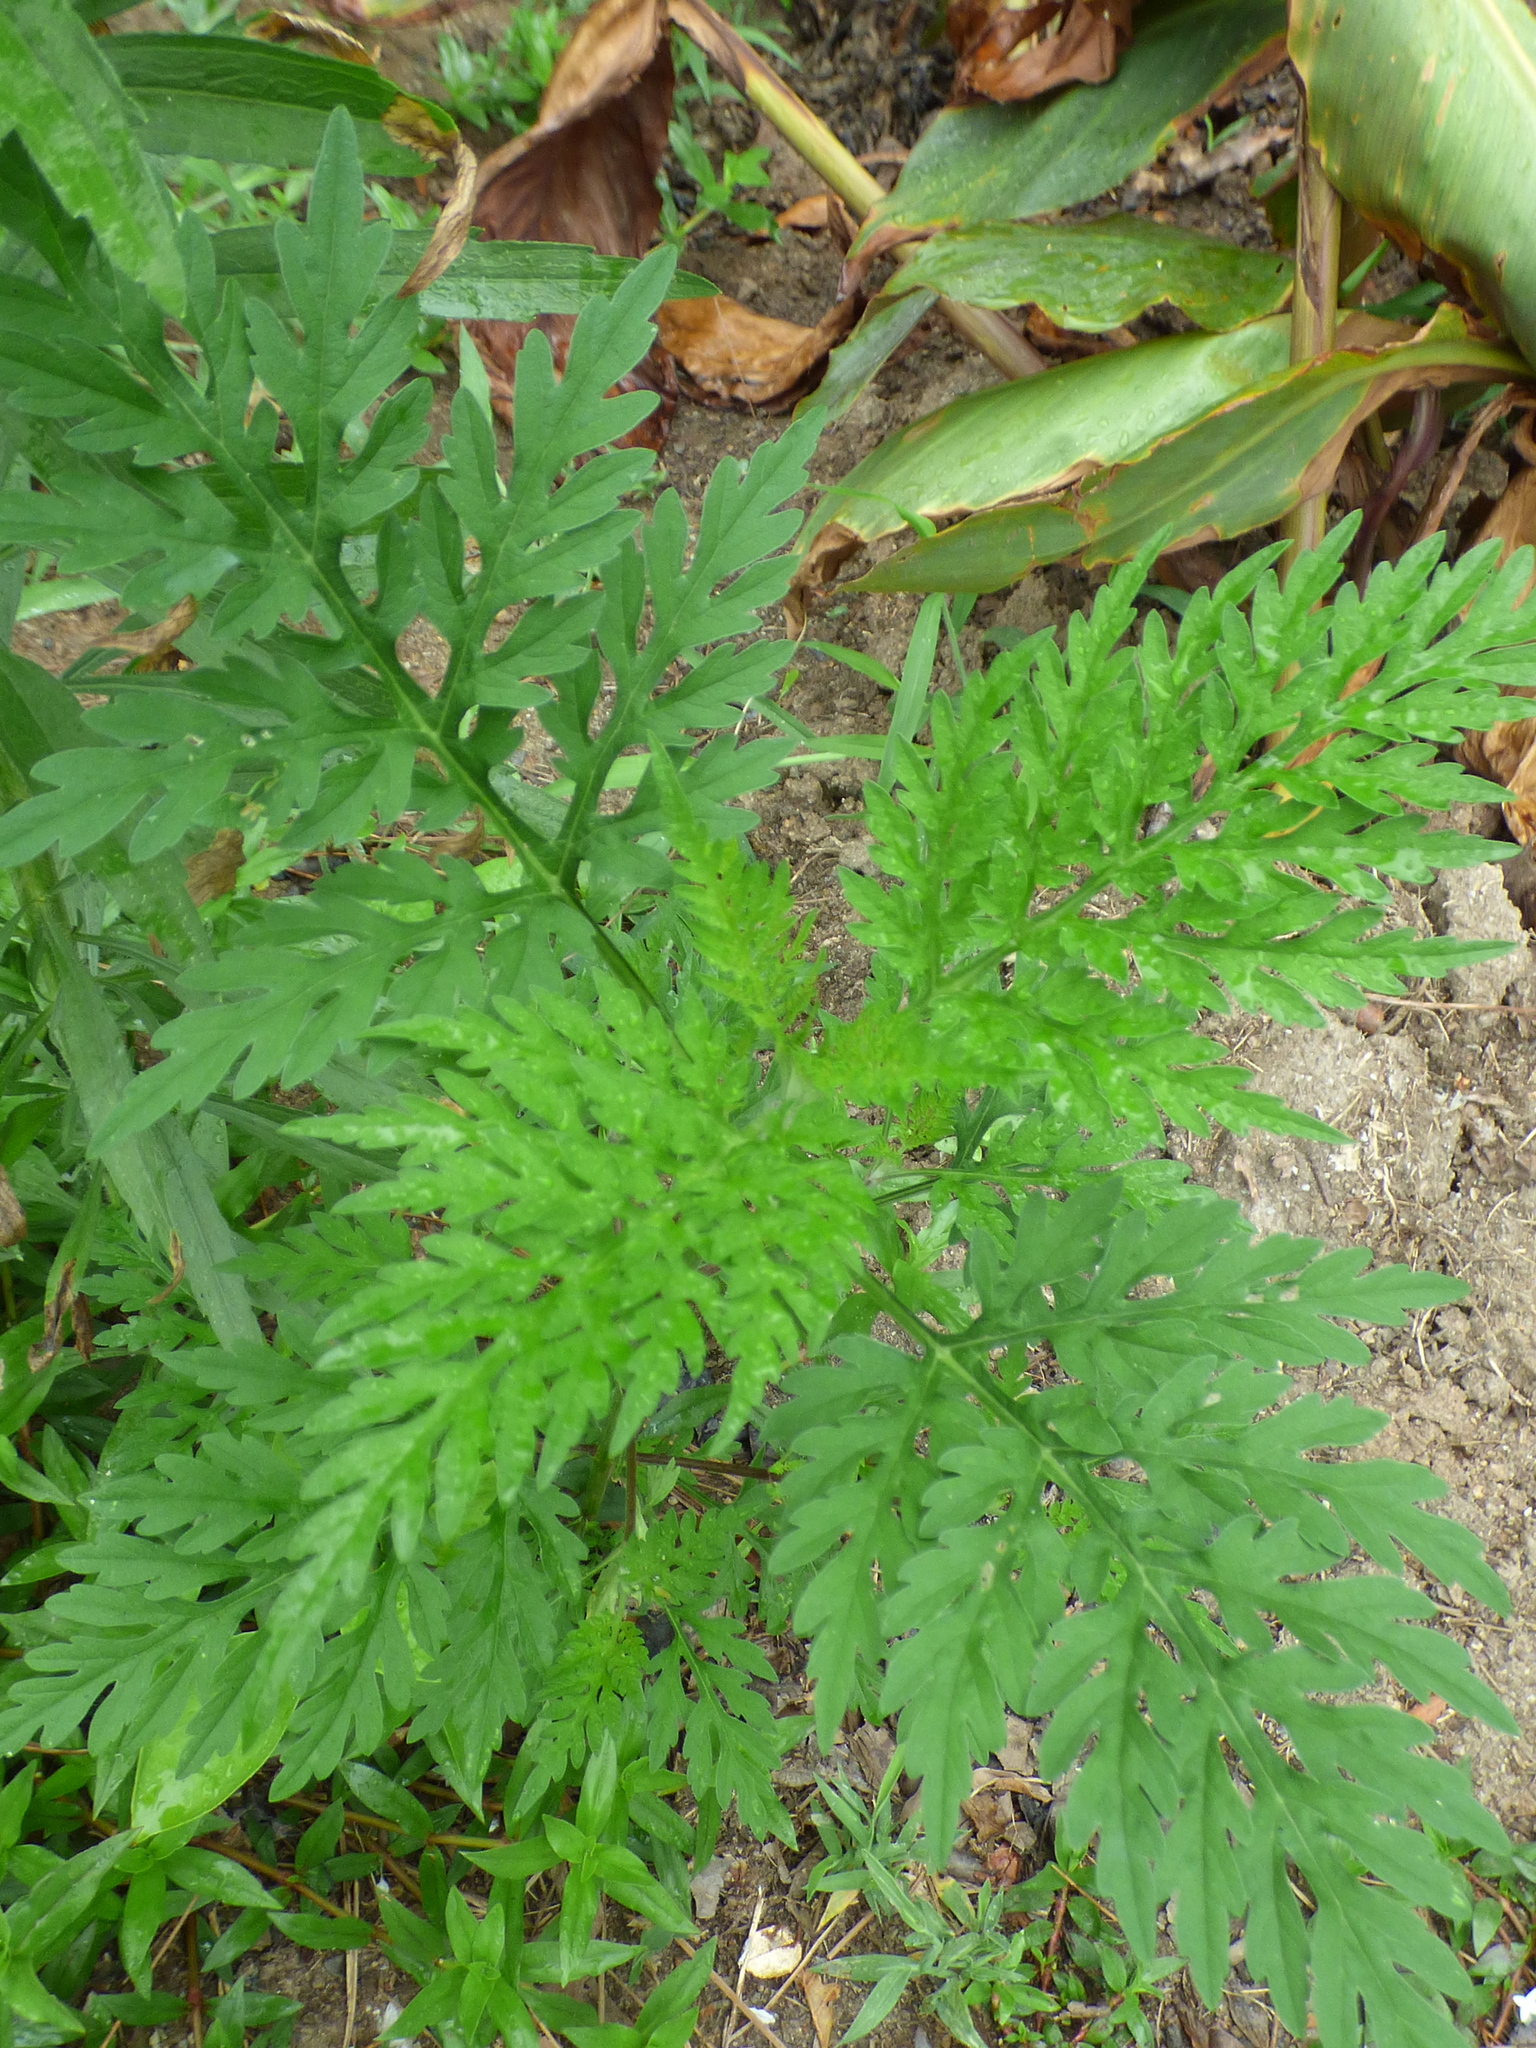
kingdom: Plantae
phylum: Tracheophyta
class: Magnoliopsida
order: Asterales
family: Asteraceae
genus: Ambrosia
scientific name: Ambrosia artemisiifolia
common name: Annual ragweed
